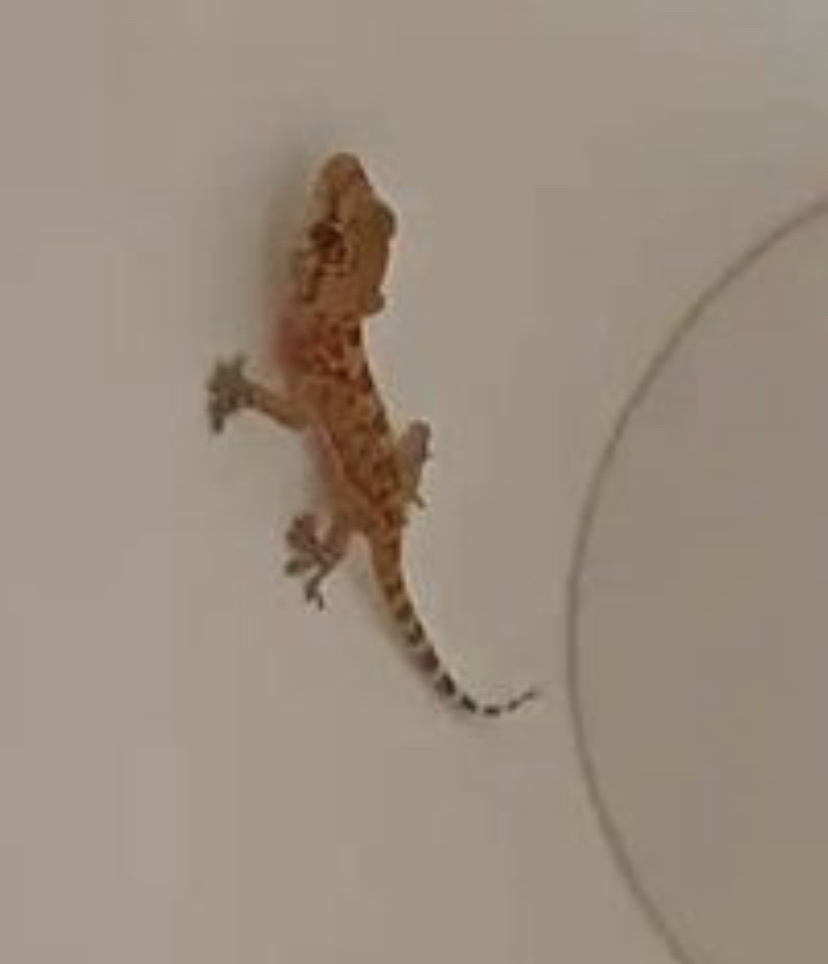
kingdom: Animalia
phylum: Chordata
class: Squamata
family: Gekkonidae
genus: Hemidactylus
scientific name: Hemidactylus turcicus
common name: Turkish gecko
